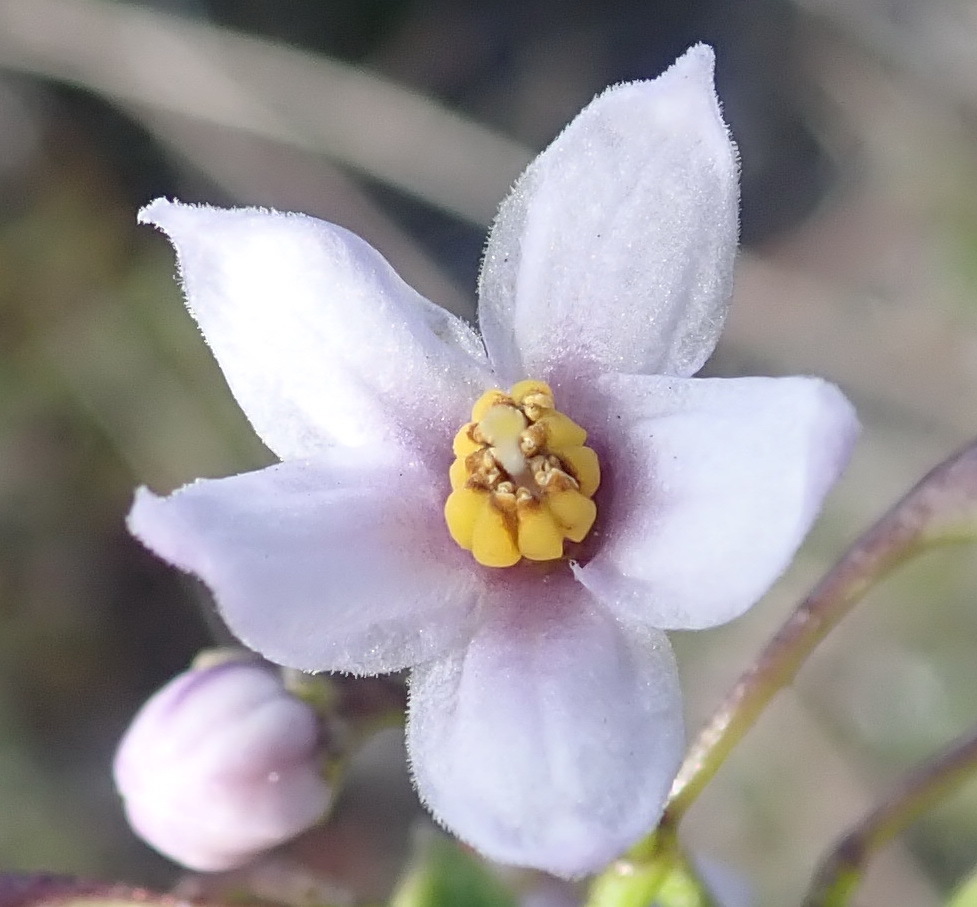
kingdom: Plantae
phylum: Tracheophyta
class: Magnoliopsida
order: Solanales
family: Solanaceae
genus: Solanum
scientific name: Solanum africanum
